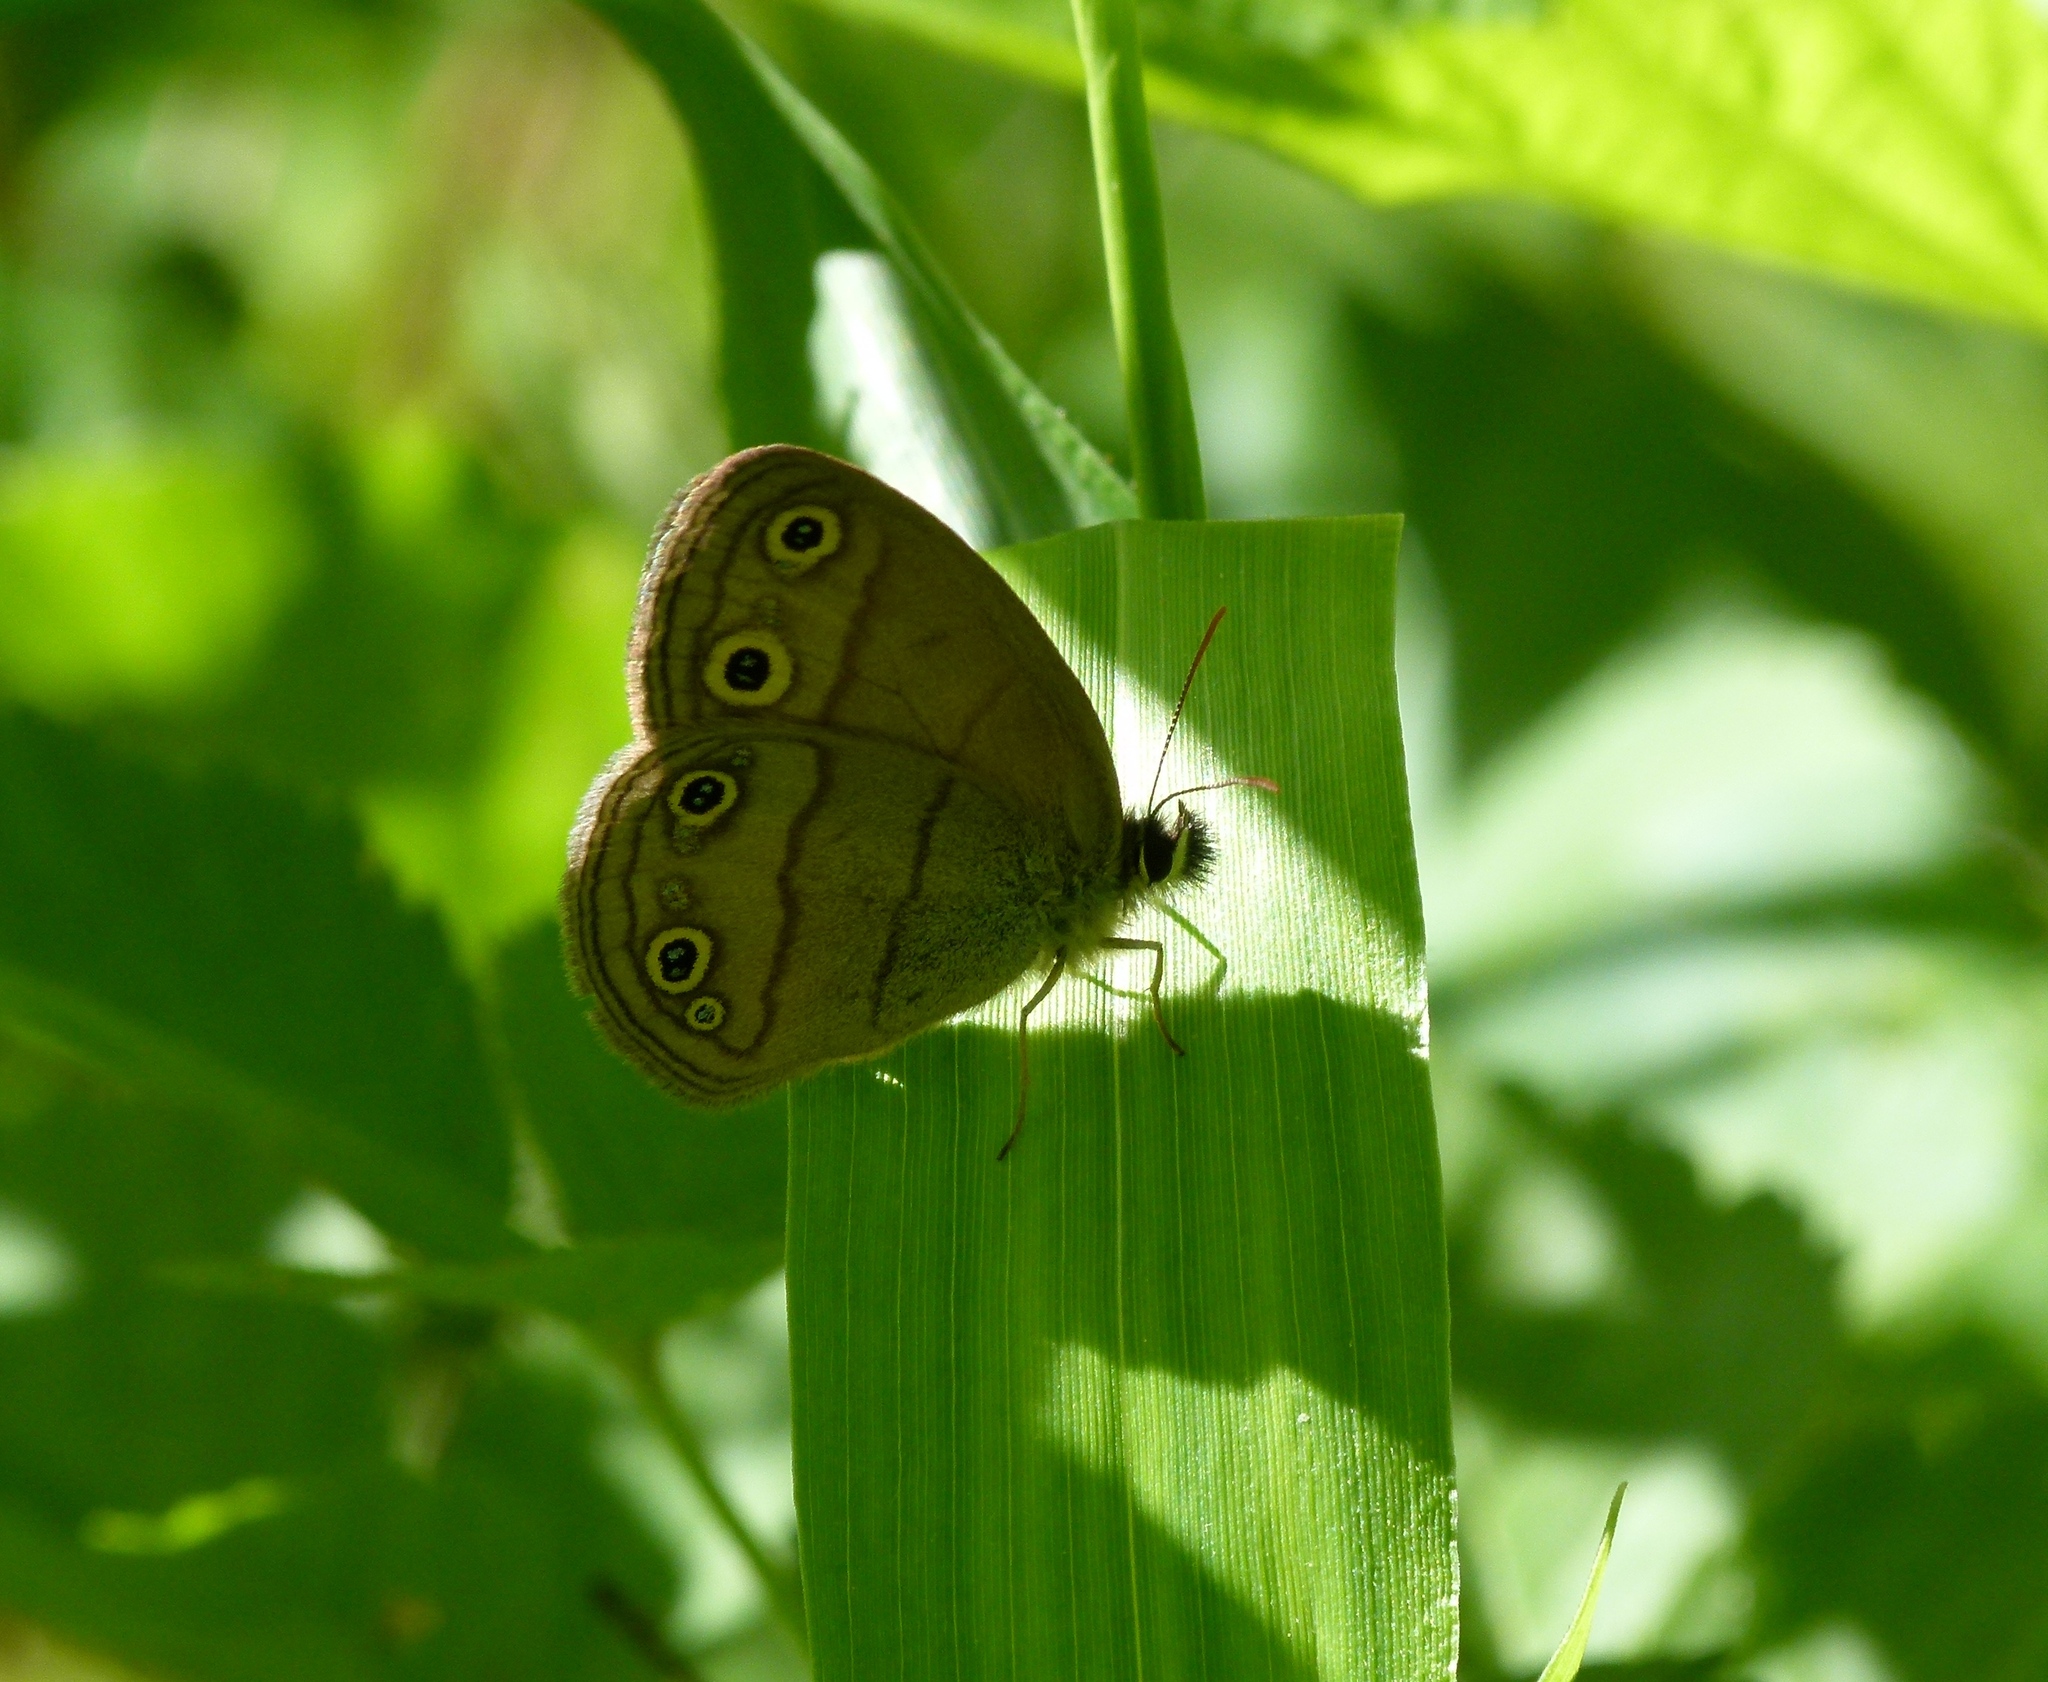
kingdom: Animalia
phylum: Arthropoda
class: Insecta
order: Lepidoptera
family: Nymphalidae
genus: Euptychia
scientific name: Euptychia cymela
